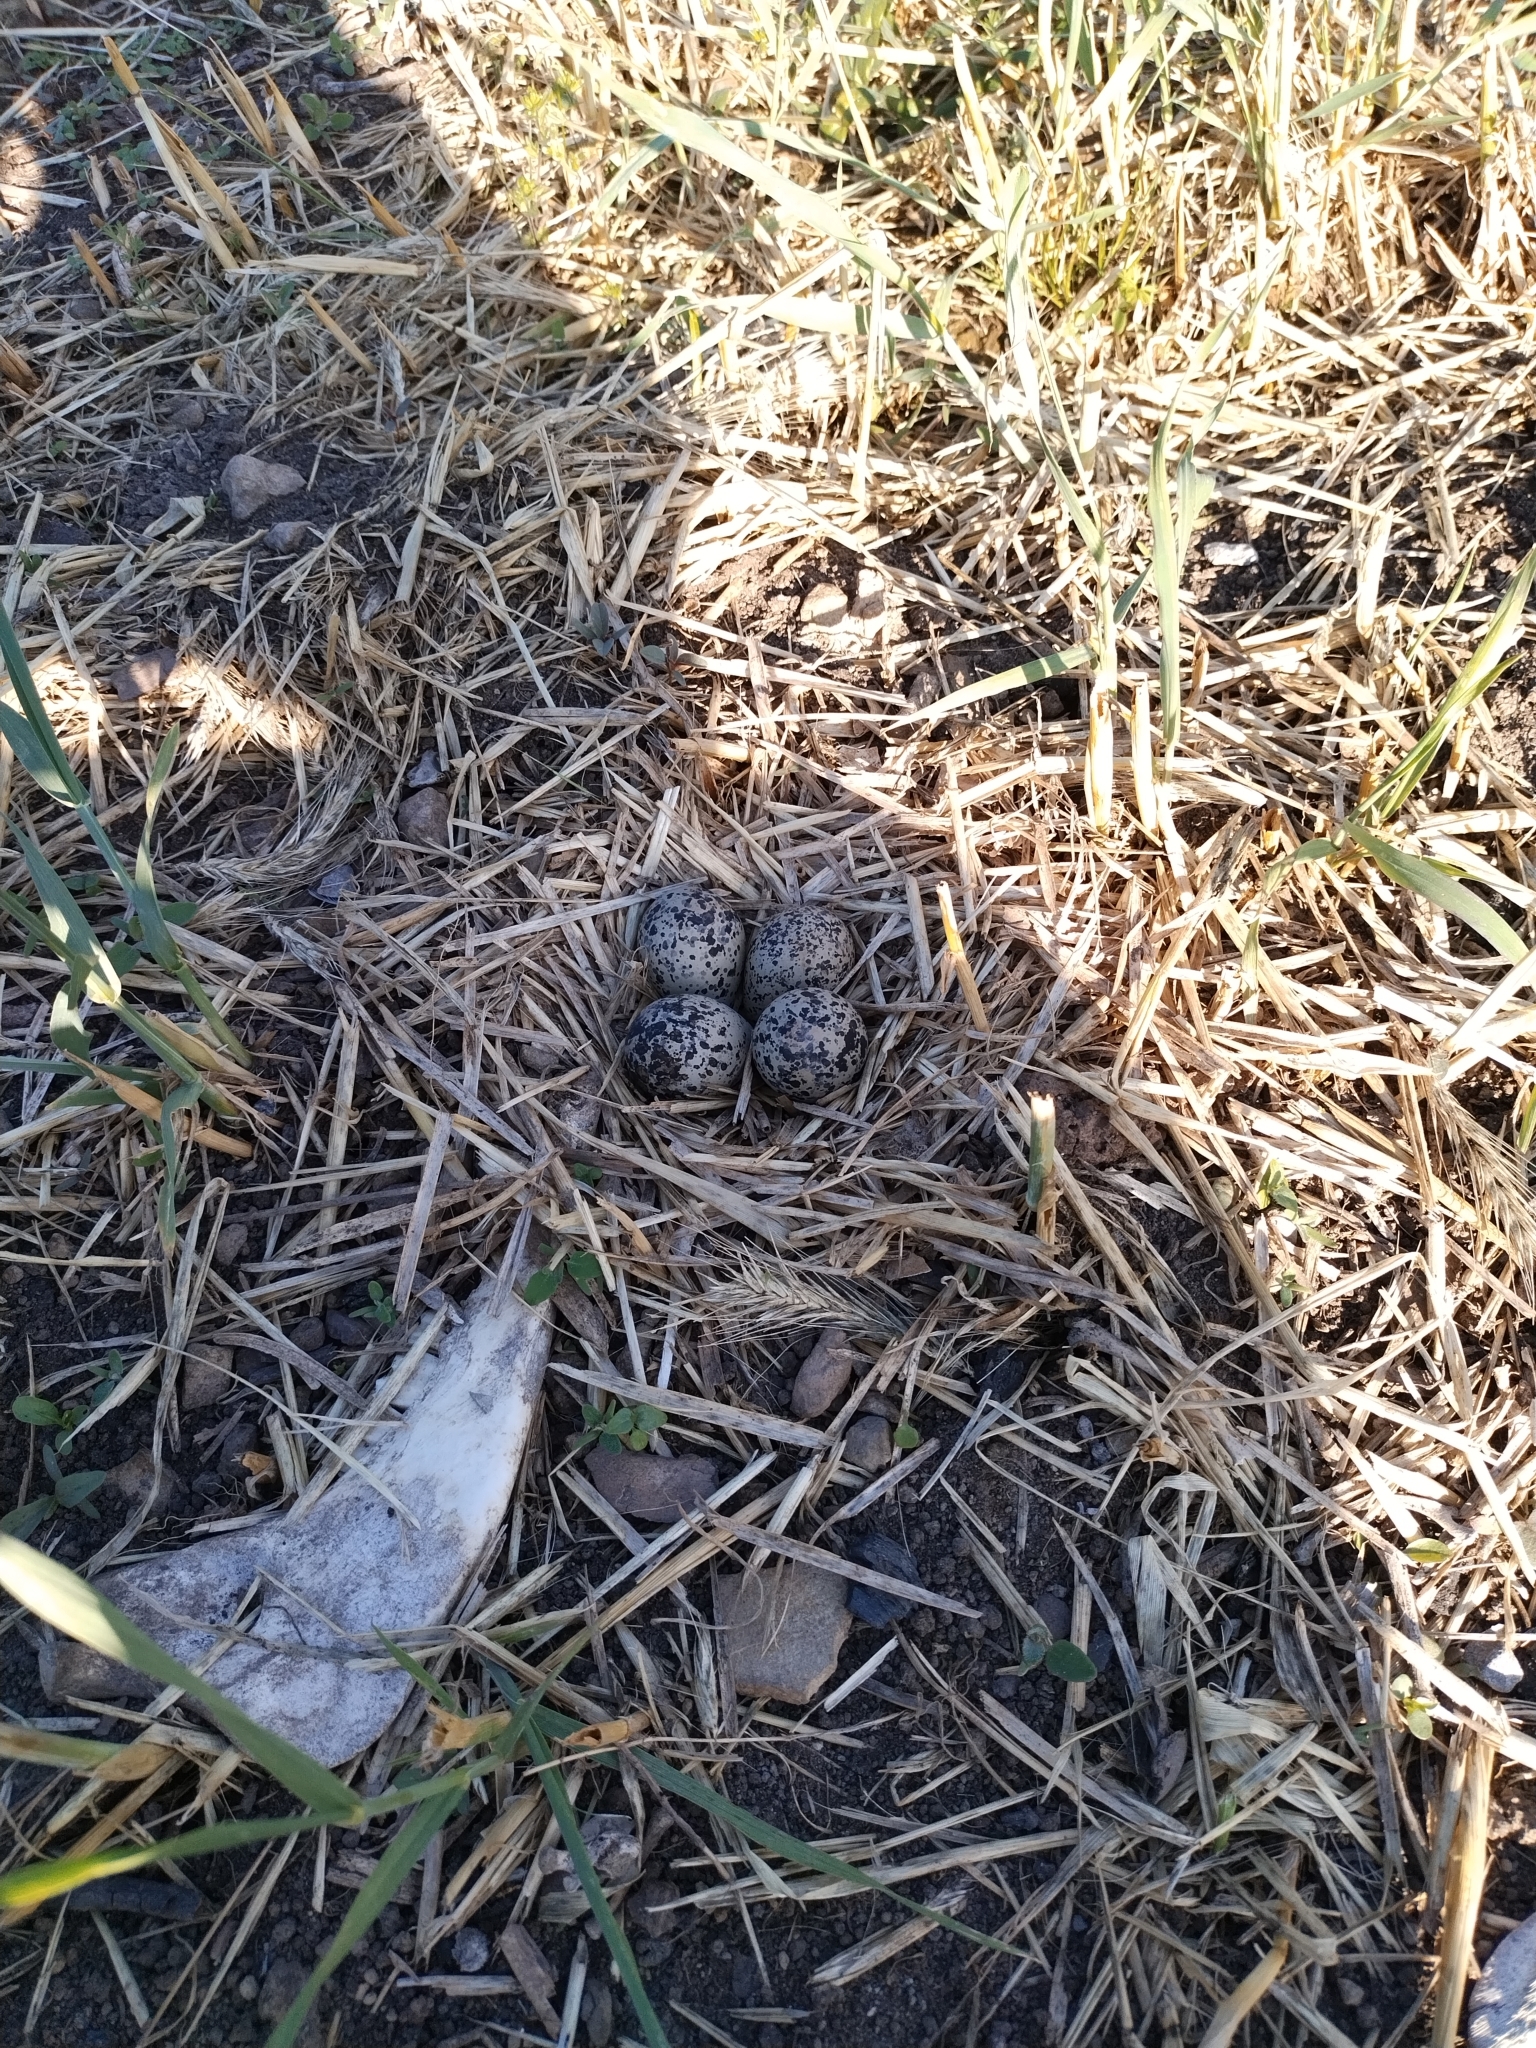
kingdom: Animalia
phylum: Chordata
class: Aves
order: Charadriiformes
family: Charadriidae
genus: Charadrius
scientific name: Charadrius vociferus
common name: Killdeer
